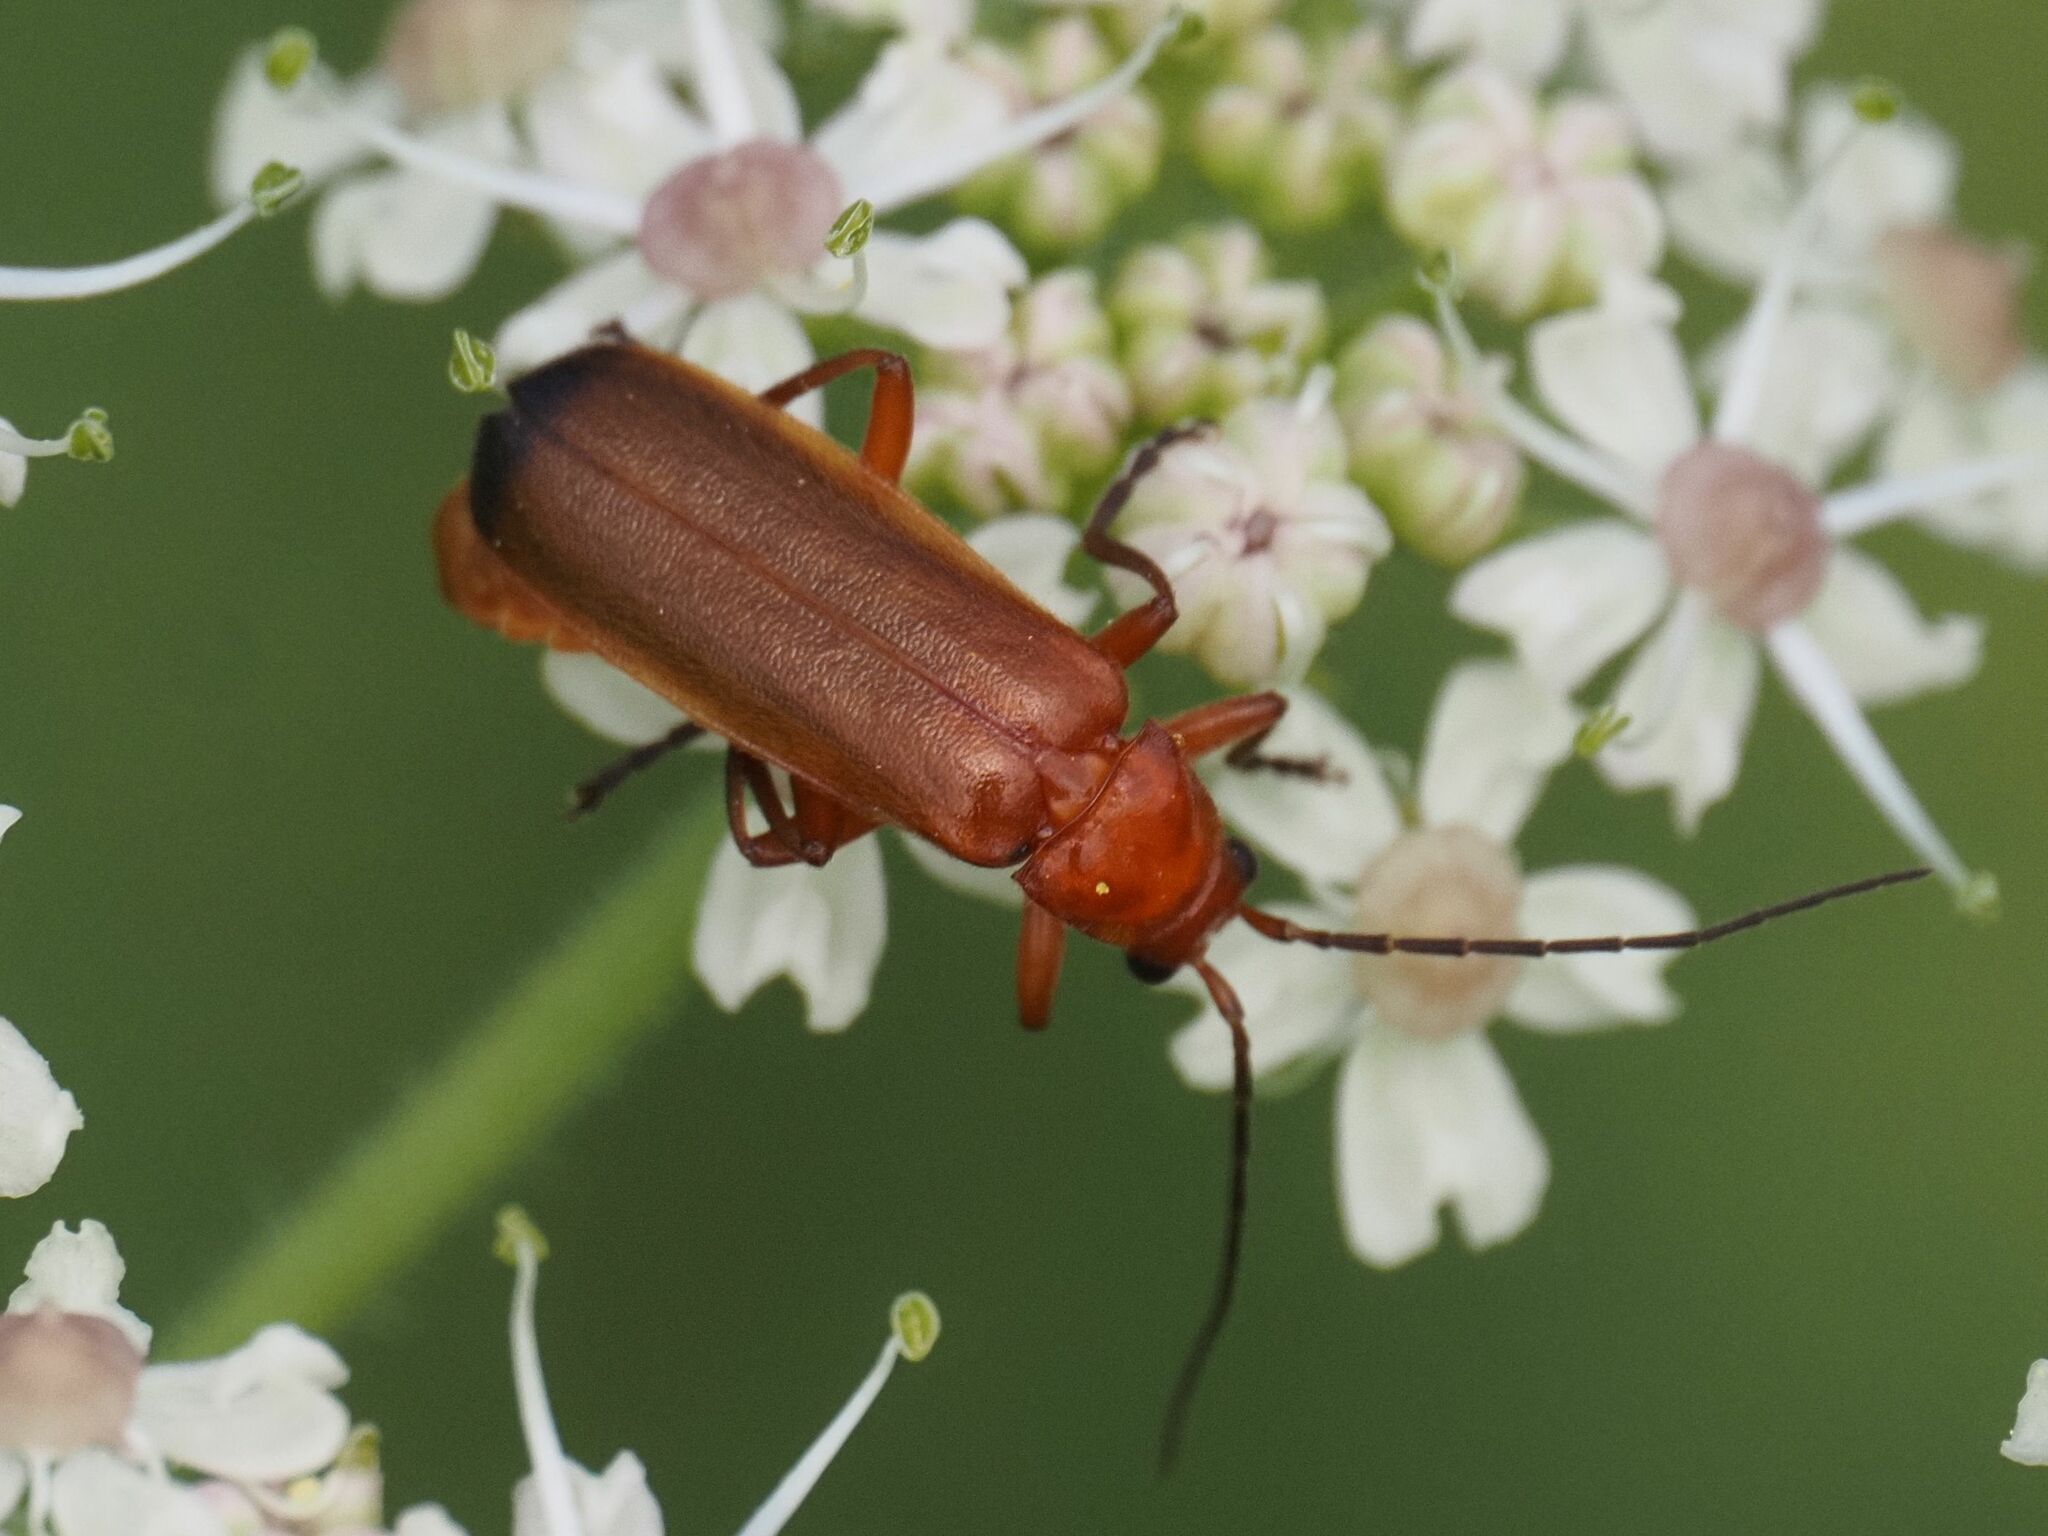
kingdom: Animalia
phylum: Arthropoda
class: Insecta
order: Coleoptera
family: Cantharidae
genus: Rhagonycha
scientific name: Rhagonycha fulva
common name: Common red soldier beetle
